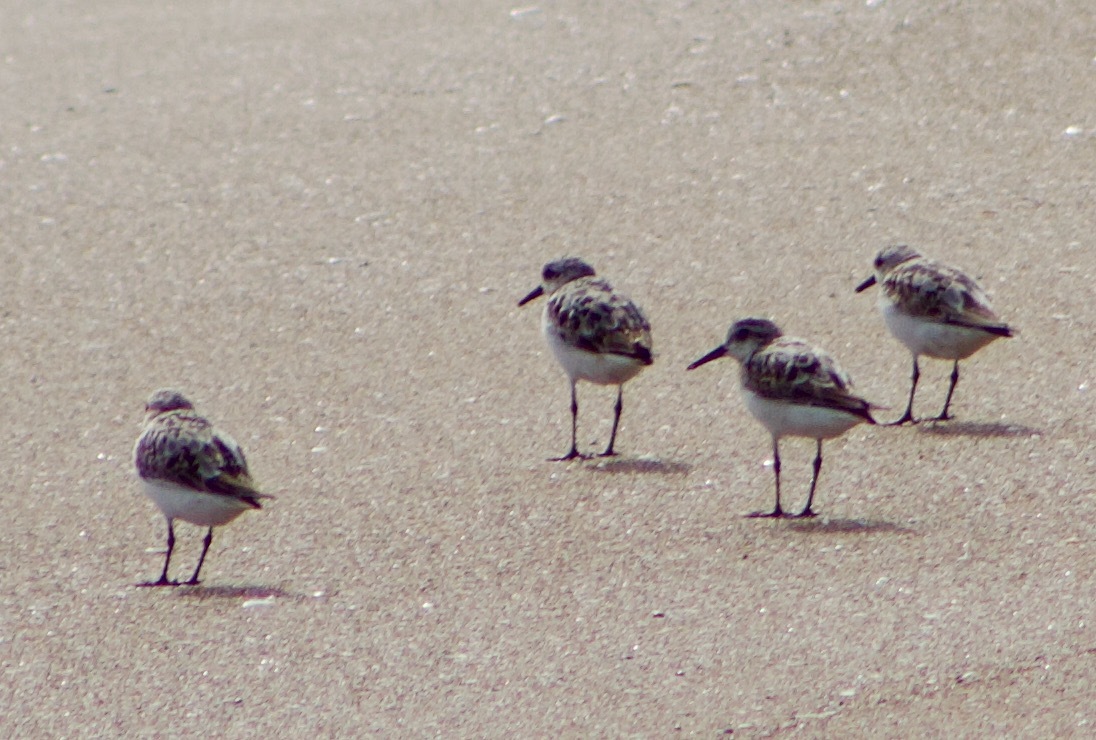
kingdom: Animalia
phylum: Chordata
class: Aves
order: Charadriiformes
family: Scolopacidae
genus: Calidris
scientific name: Calidris alba
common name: Sanderling
